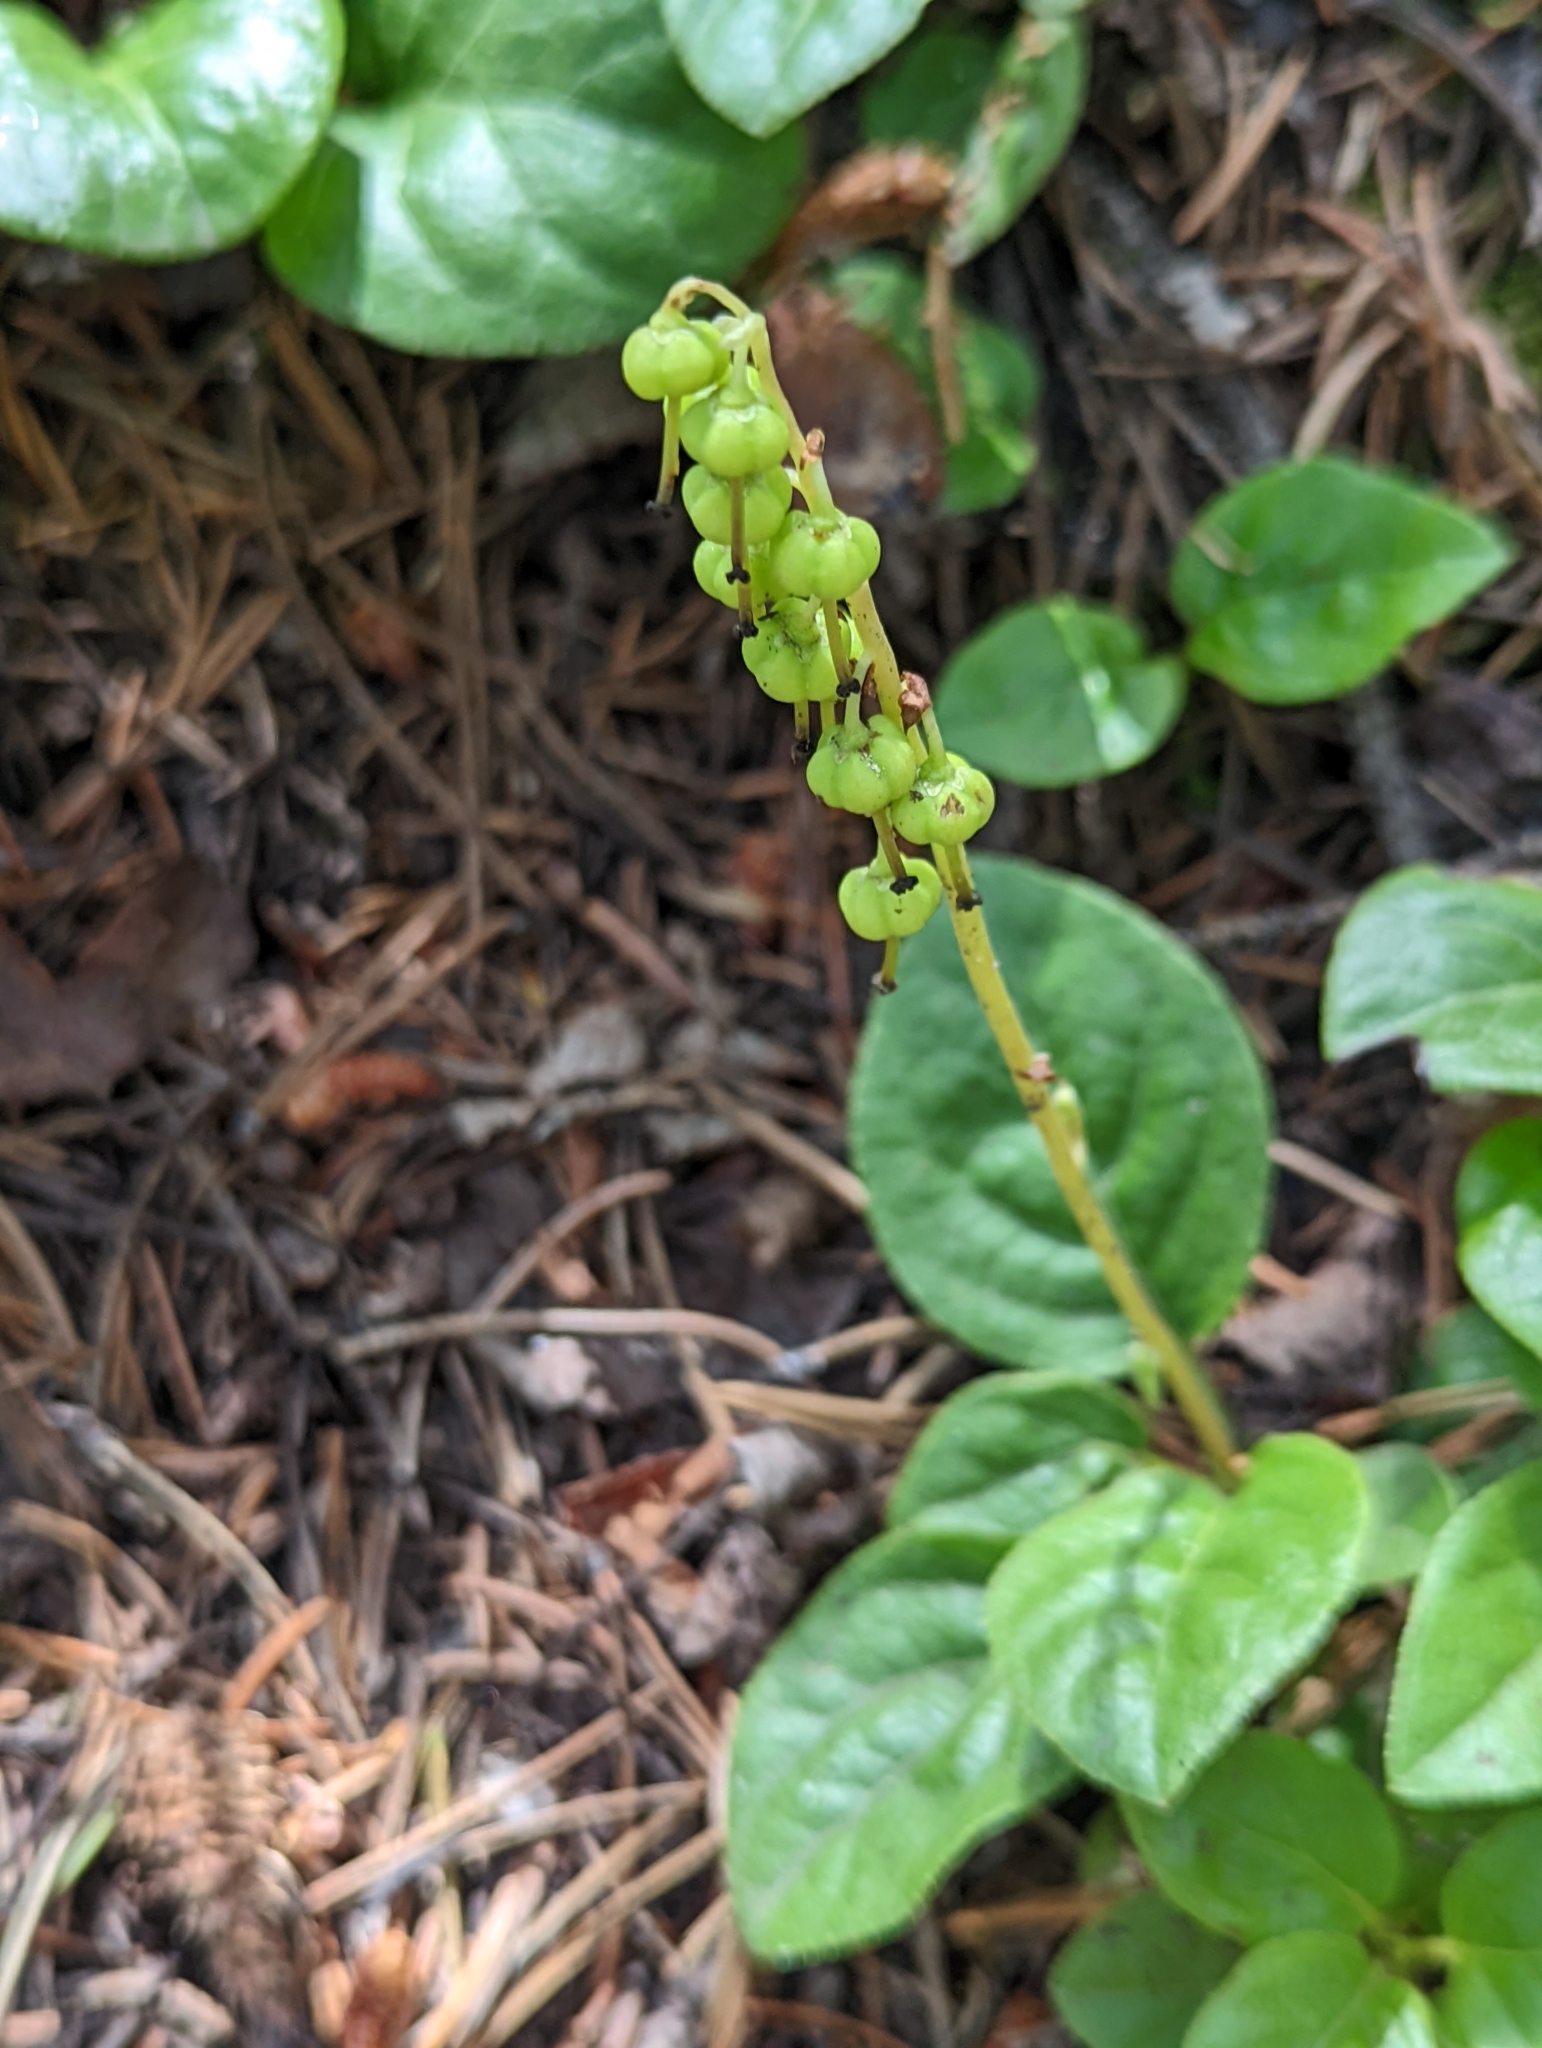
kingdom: Plantae
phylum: Tracheophyta
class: Magnoliopsida
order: Ericales
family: Ericaceae
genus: Orthilia
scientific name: Orthilia secunda
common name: One-sided orthilia
